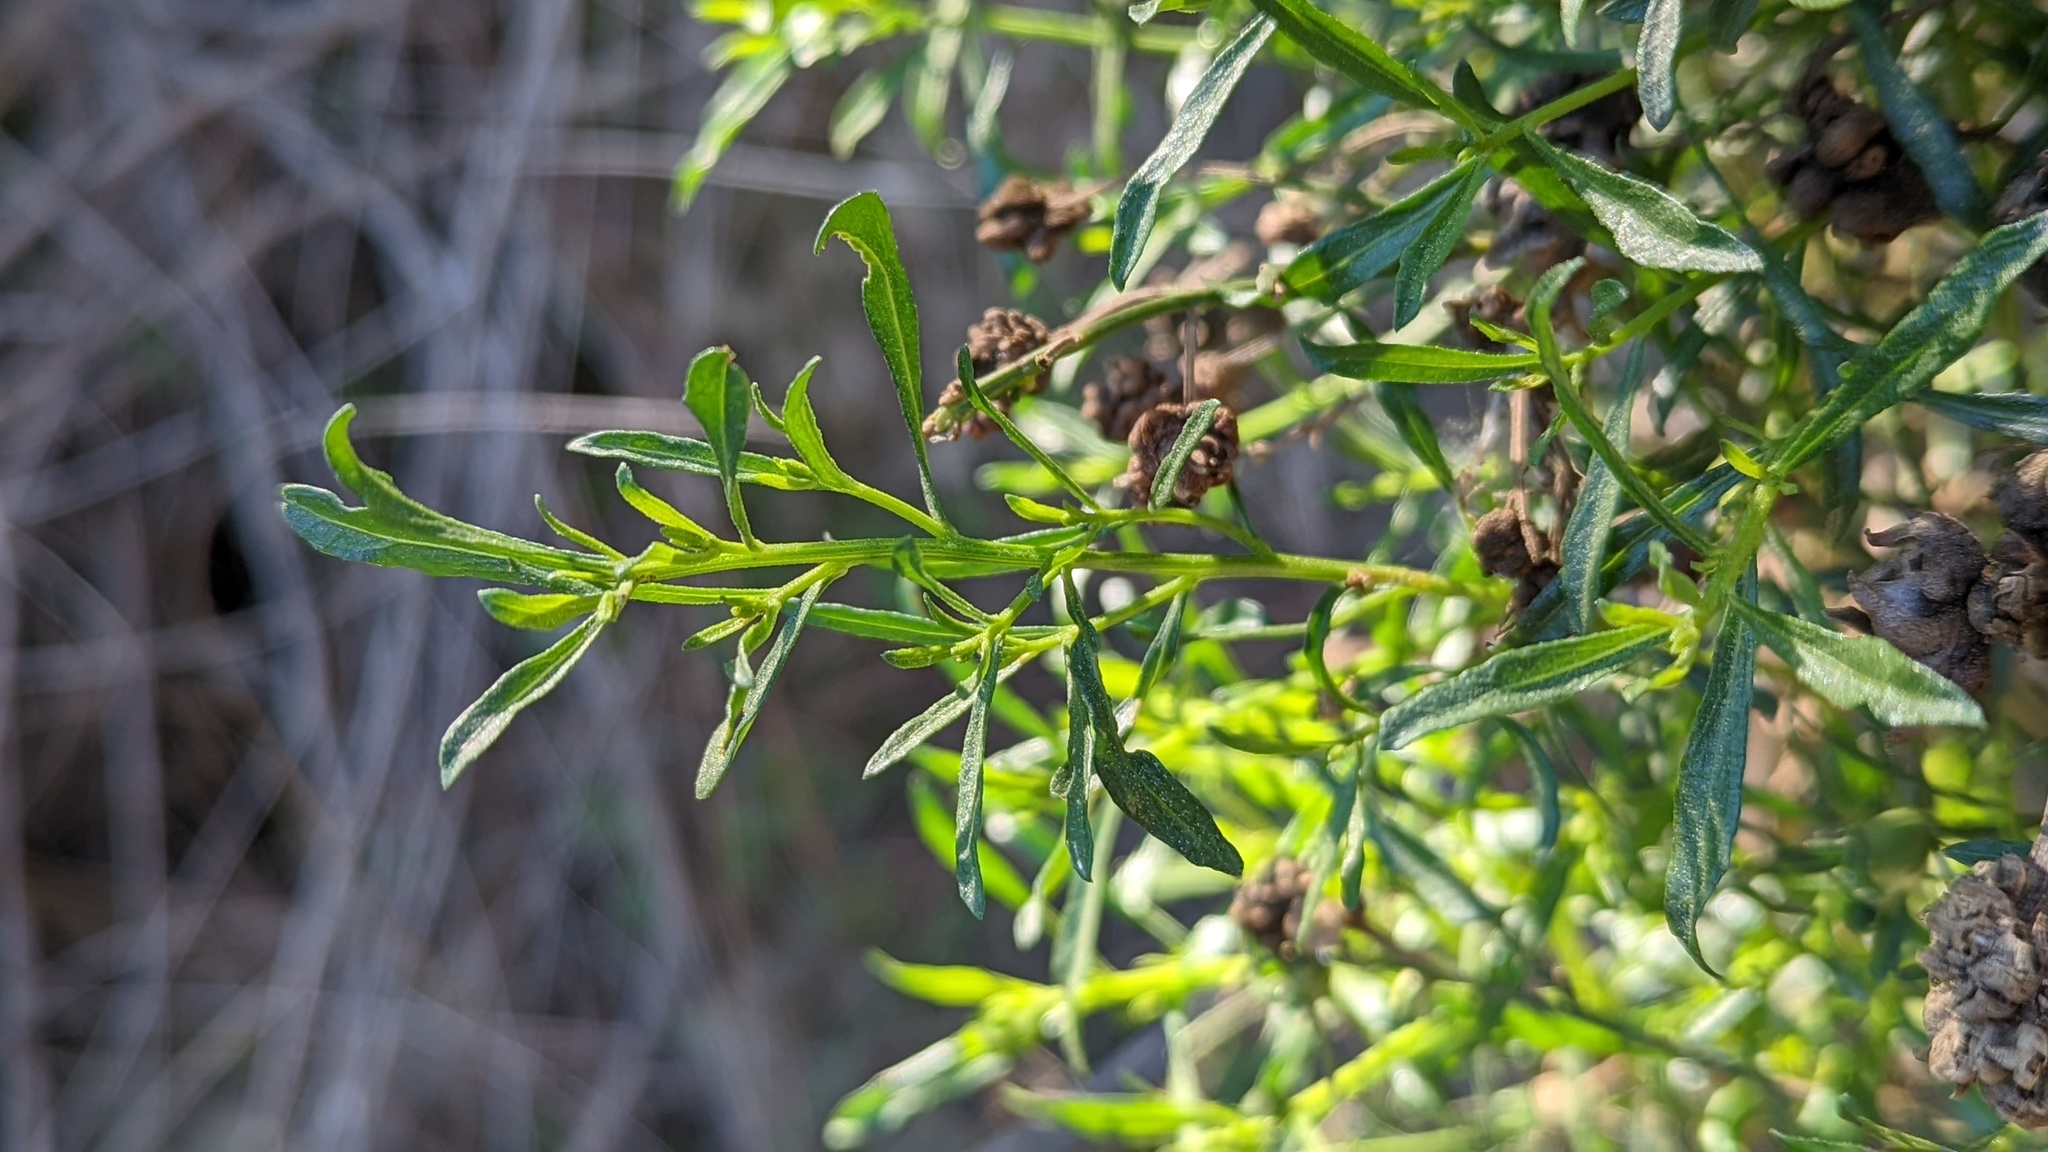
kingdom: Animalia
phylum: Arthropoda
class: Insecta
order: Diptera
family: Cecidomyiidae
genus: Rhopalomyia
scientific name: Rhopalomyia californica
